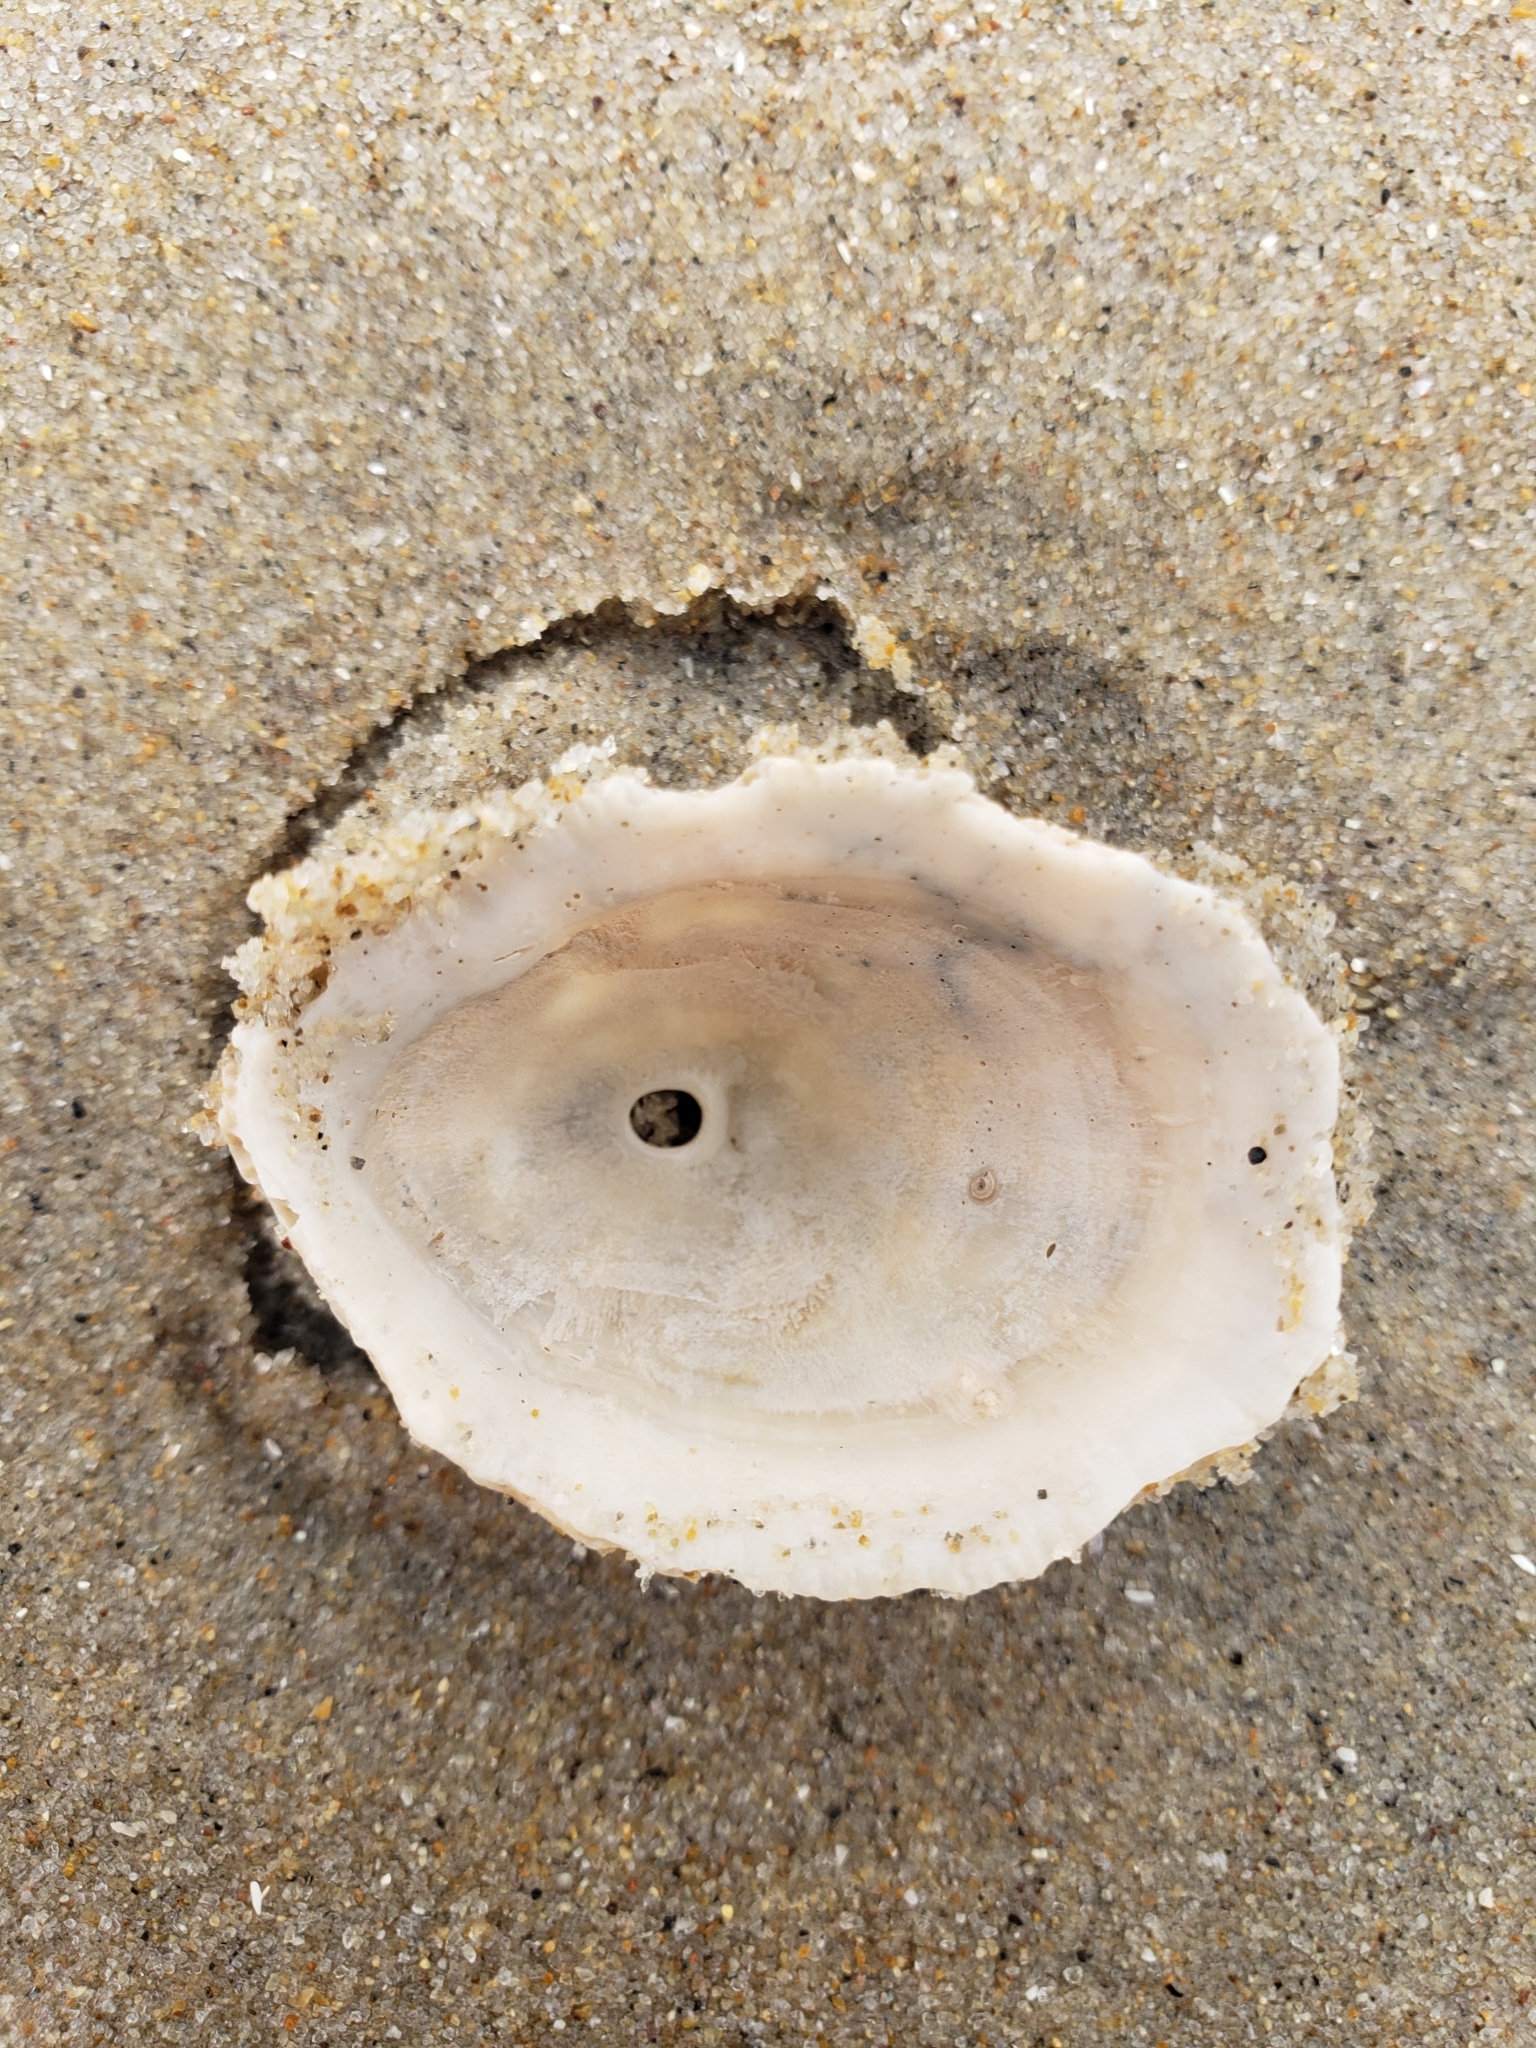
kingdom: Animalia
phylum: Mollusca
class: Gastropoda
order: Lepetellida
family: Fissurellidae
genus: Diodora
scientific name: Diodora aspera
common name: Rough keyhole limpet
